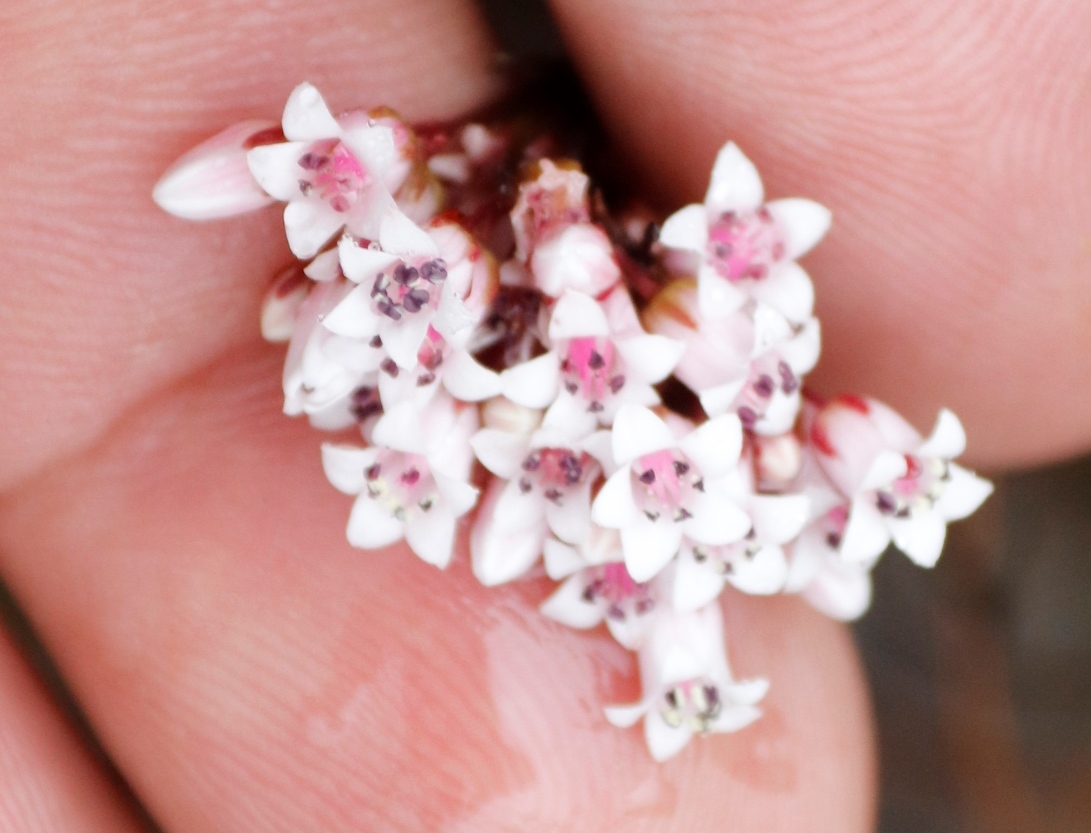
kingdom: Plantae
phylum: Tracheophyta
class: Magnoliopsida
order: Saxifragales
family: Crassulaceae
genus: Crassula
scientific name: Crassula saxifraga
